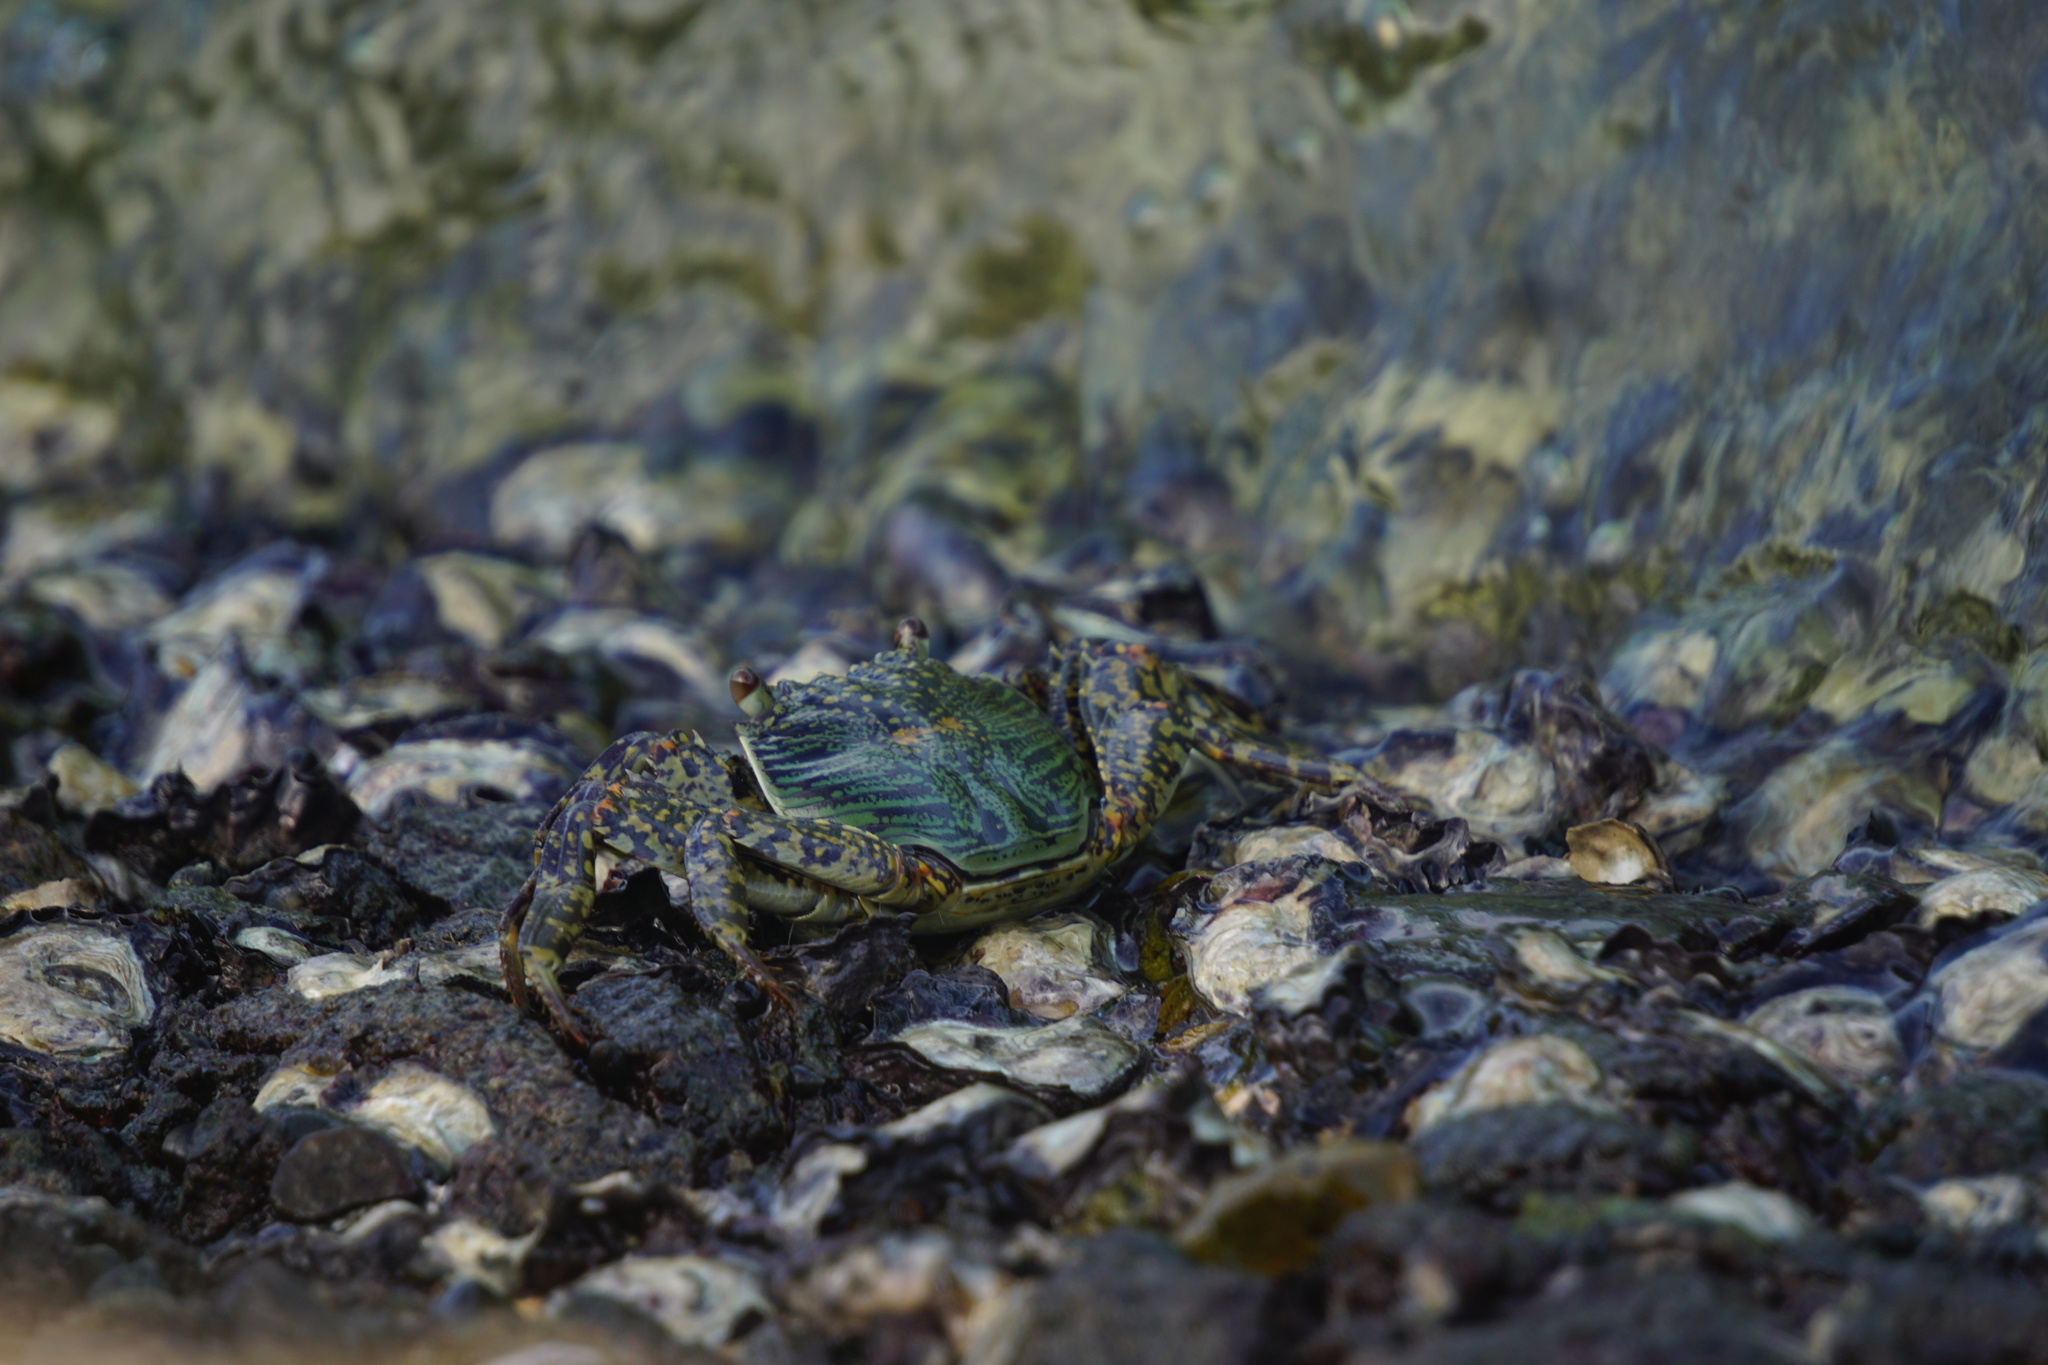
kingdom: Animalia
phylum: Arthropoda
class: Malacostraca
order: Decapoda
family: Grapsidae
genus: Grapsus
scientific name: Grapsus albolineatus
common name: Mottled lightfoot crab
